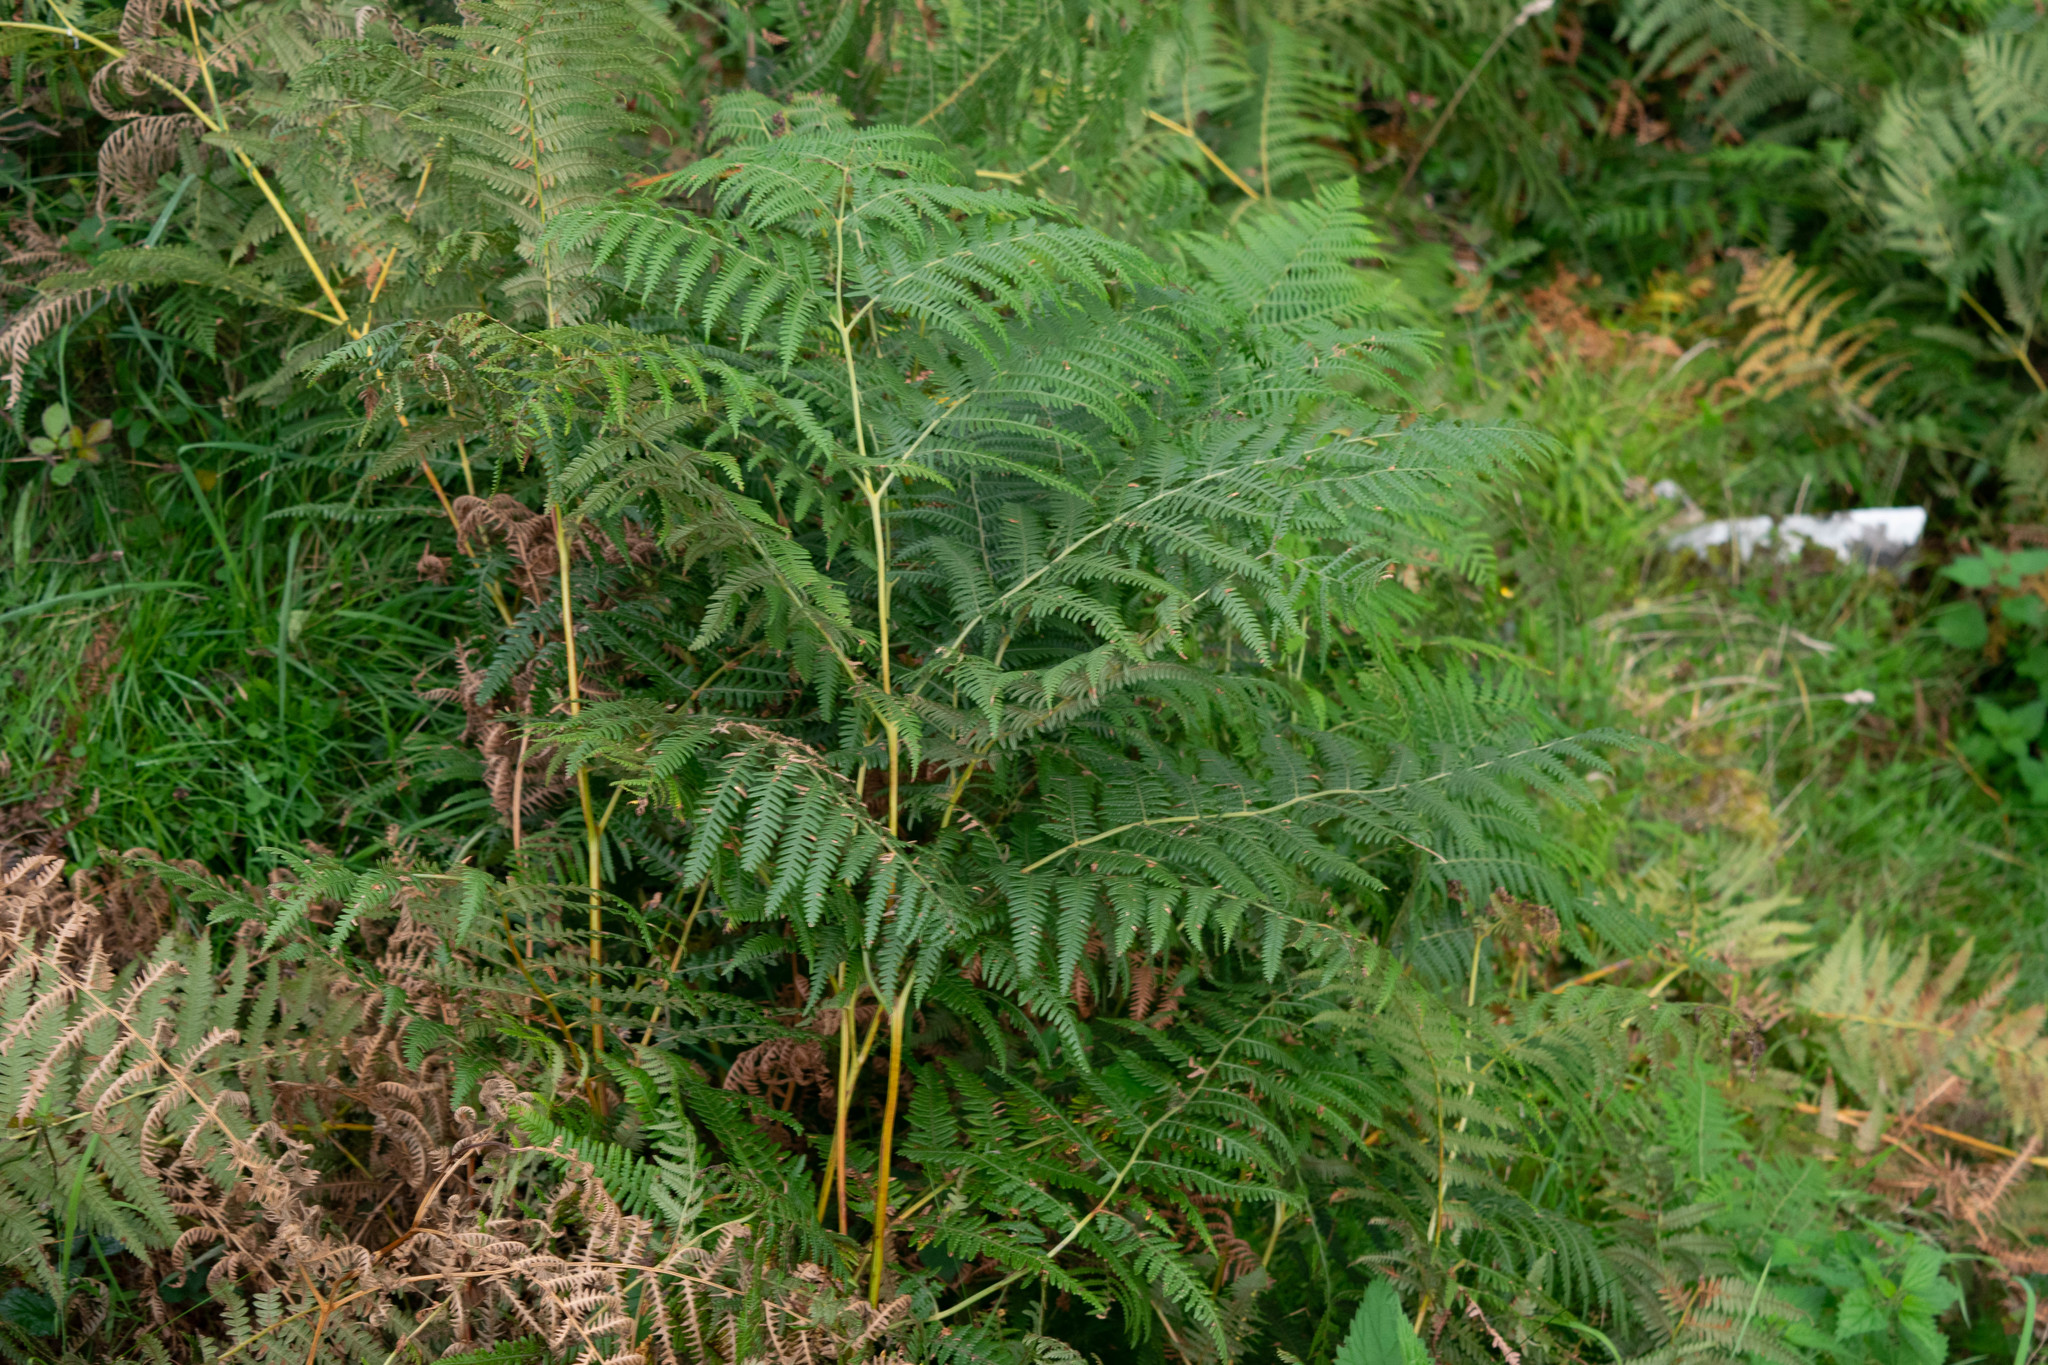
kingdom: Plantae
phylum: Tracheophyta
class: Polypodiopsida
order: Polypodiales
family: Dennstaedtiaceae
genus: Pteridium
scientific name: Pteridium aquilinum
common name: Bracken
